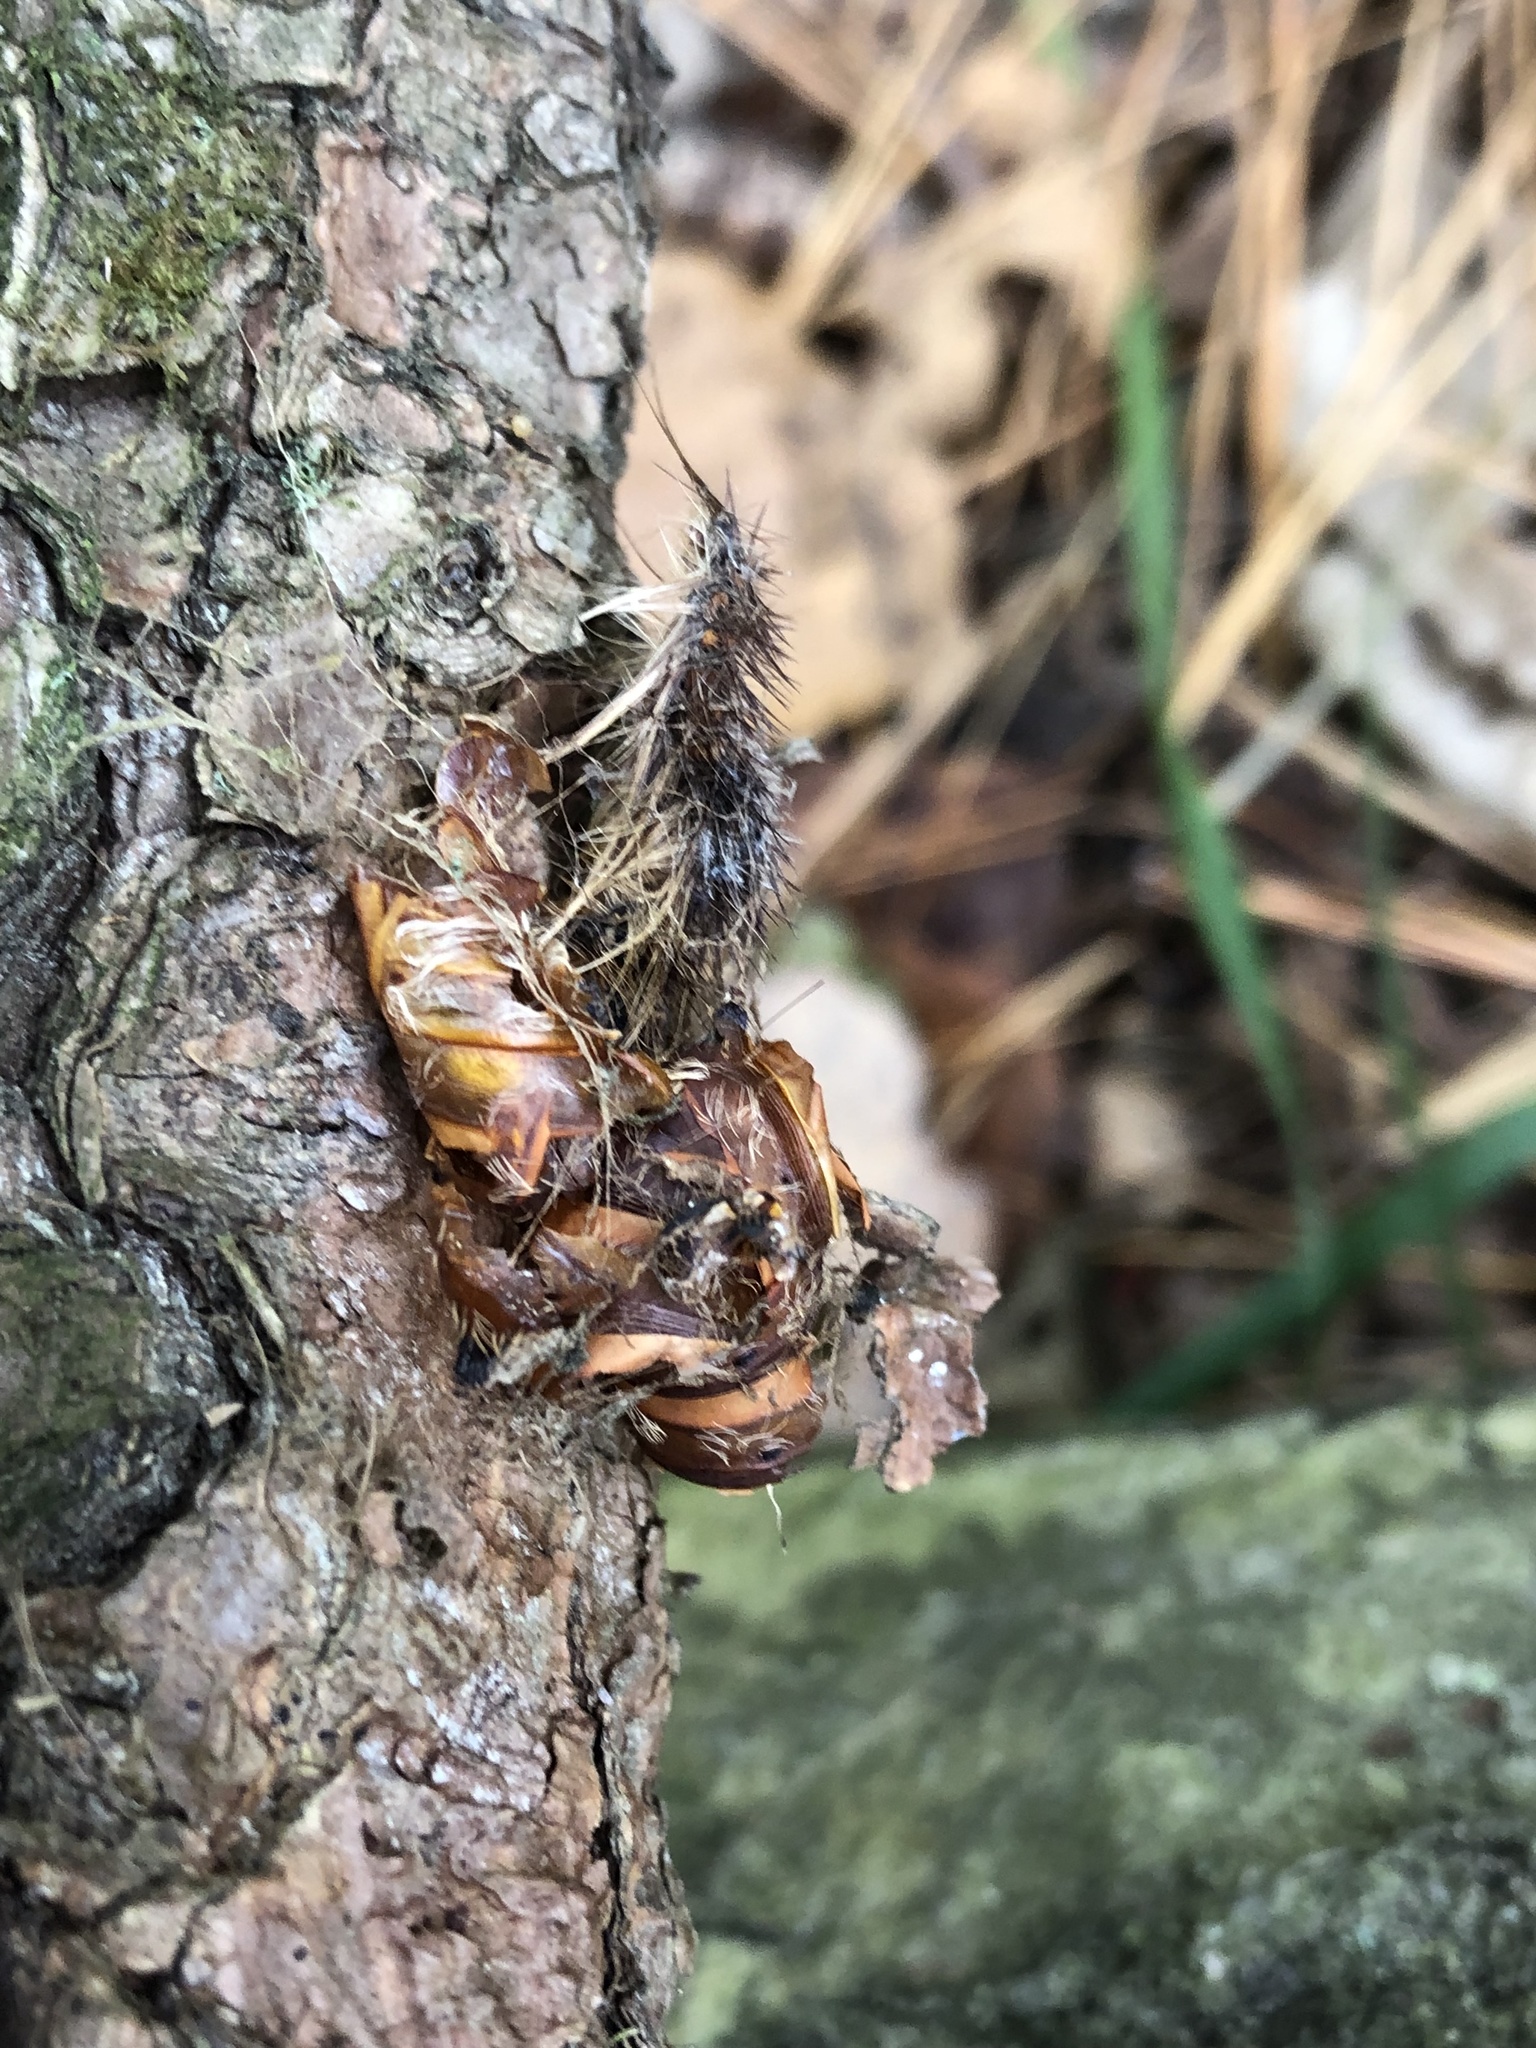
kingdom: Animalia
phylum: Arthropoda
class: Insecta
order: Lepidoptera
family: Erebidae
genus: Lymantria
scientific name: Lymantria dispar
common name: Gypsy moth
